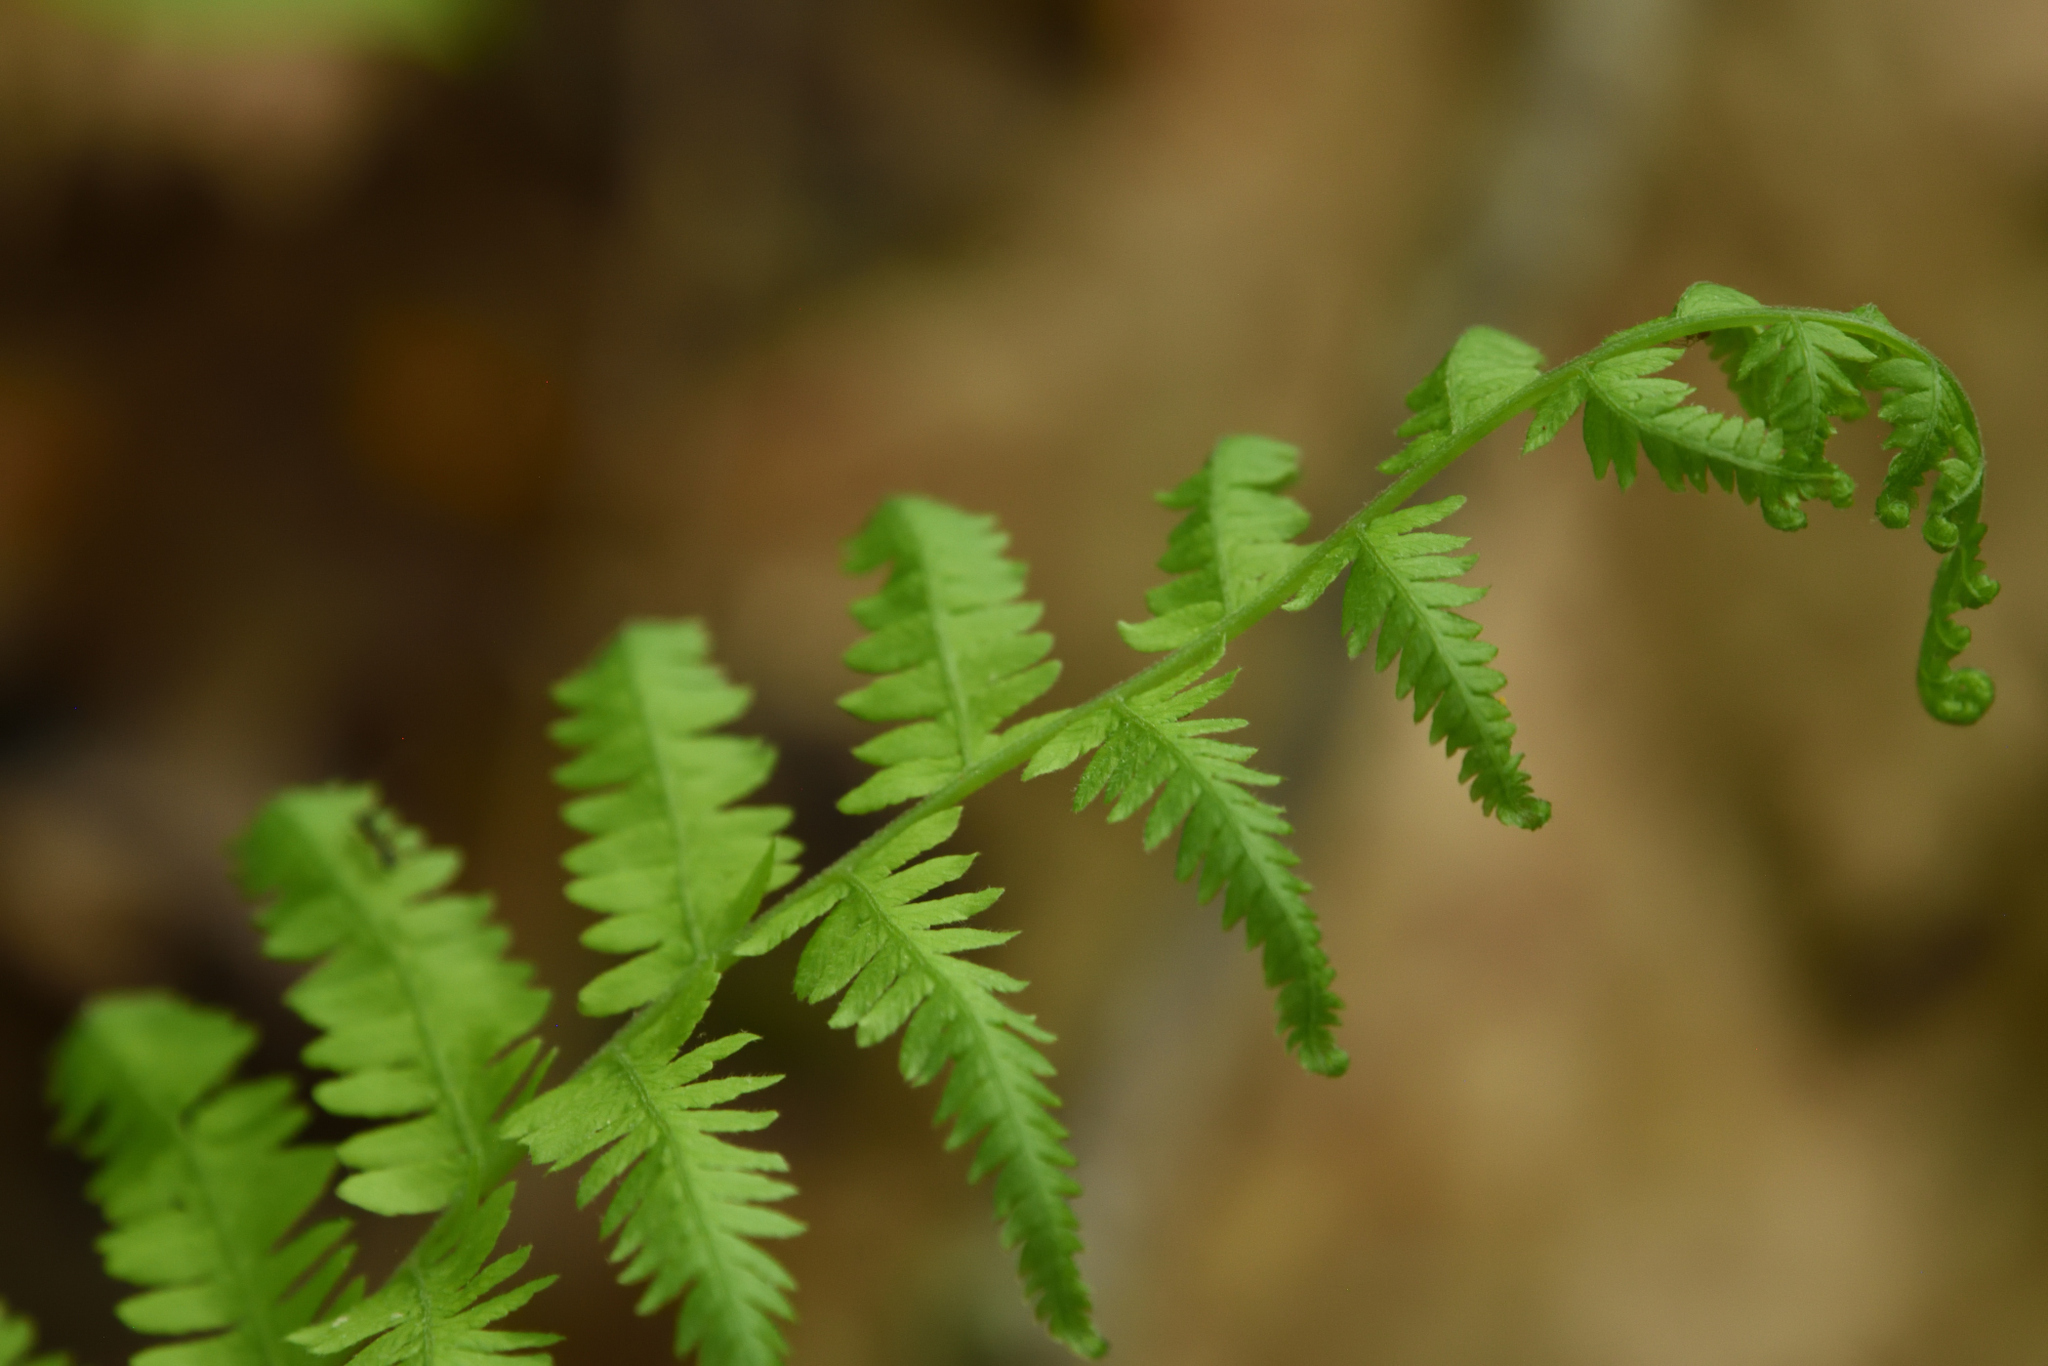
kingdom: Plantae
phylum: Tracheophyta
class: Polypodiopsida
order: Polypodiales
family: Thelypteridaceae
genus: Amauropelta
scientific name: Amauropelta noveboracensis
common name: New york fern
